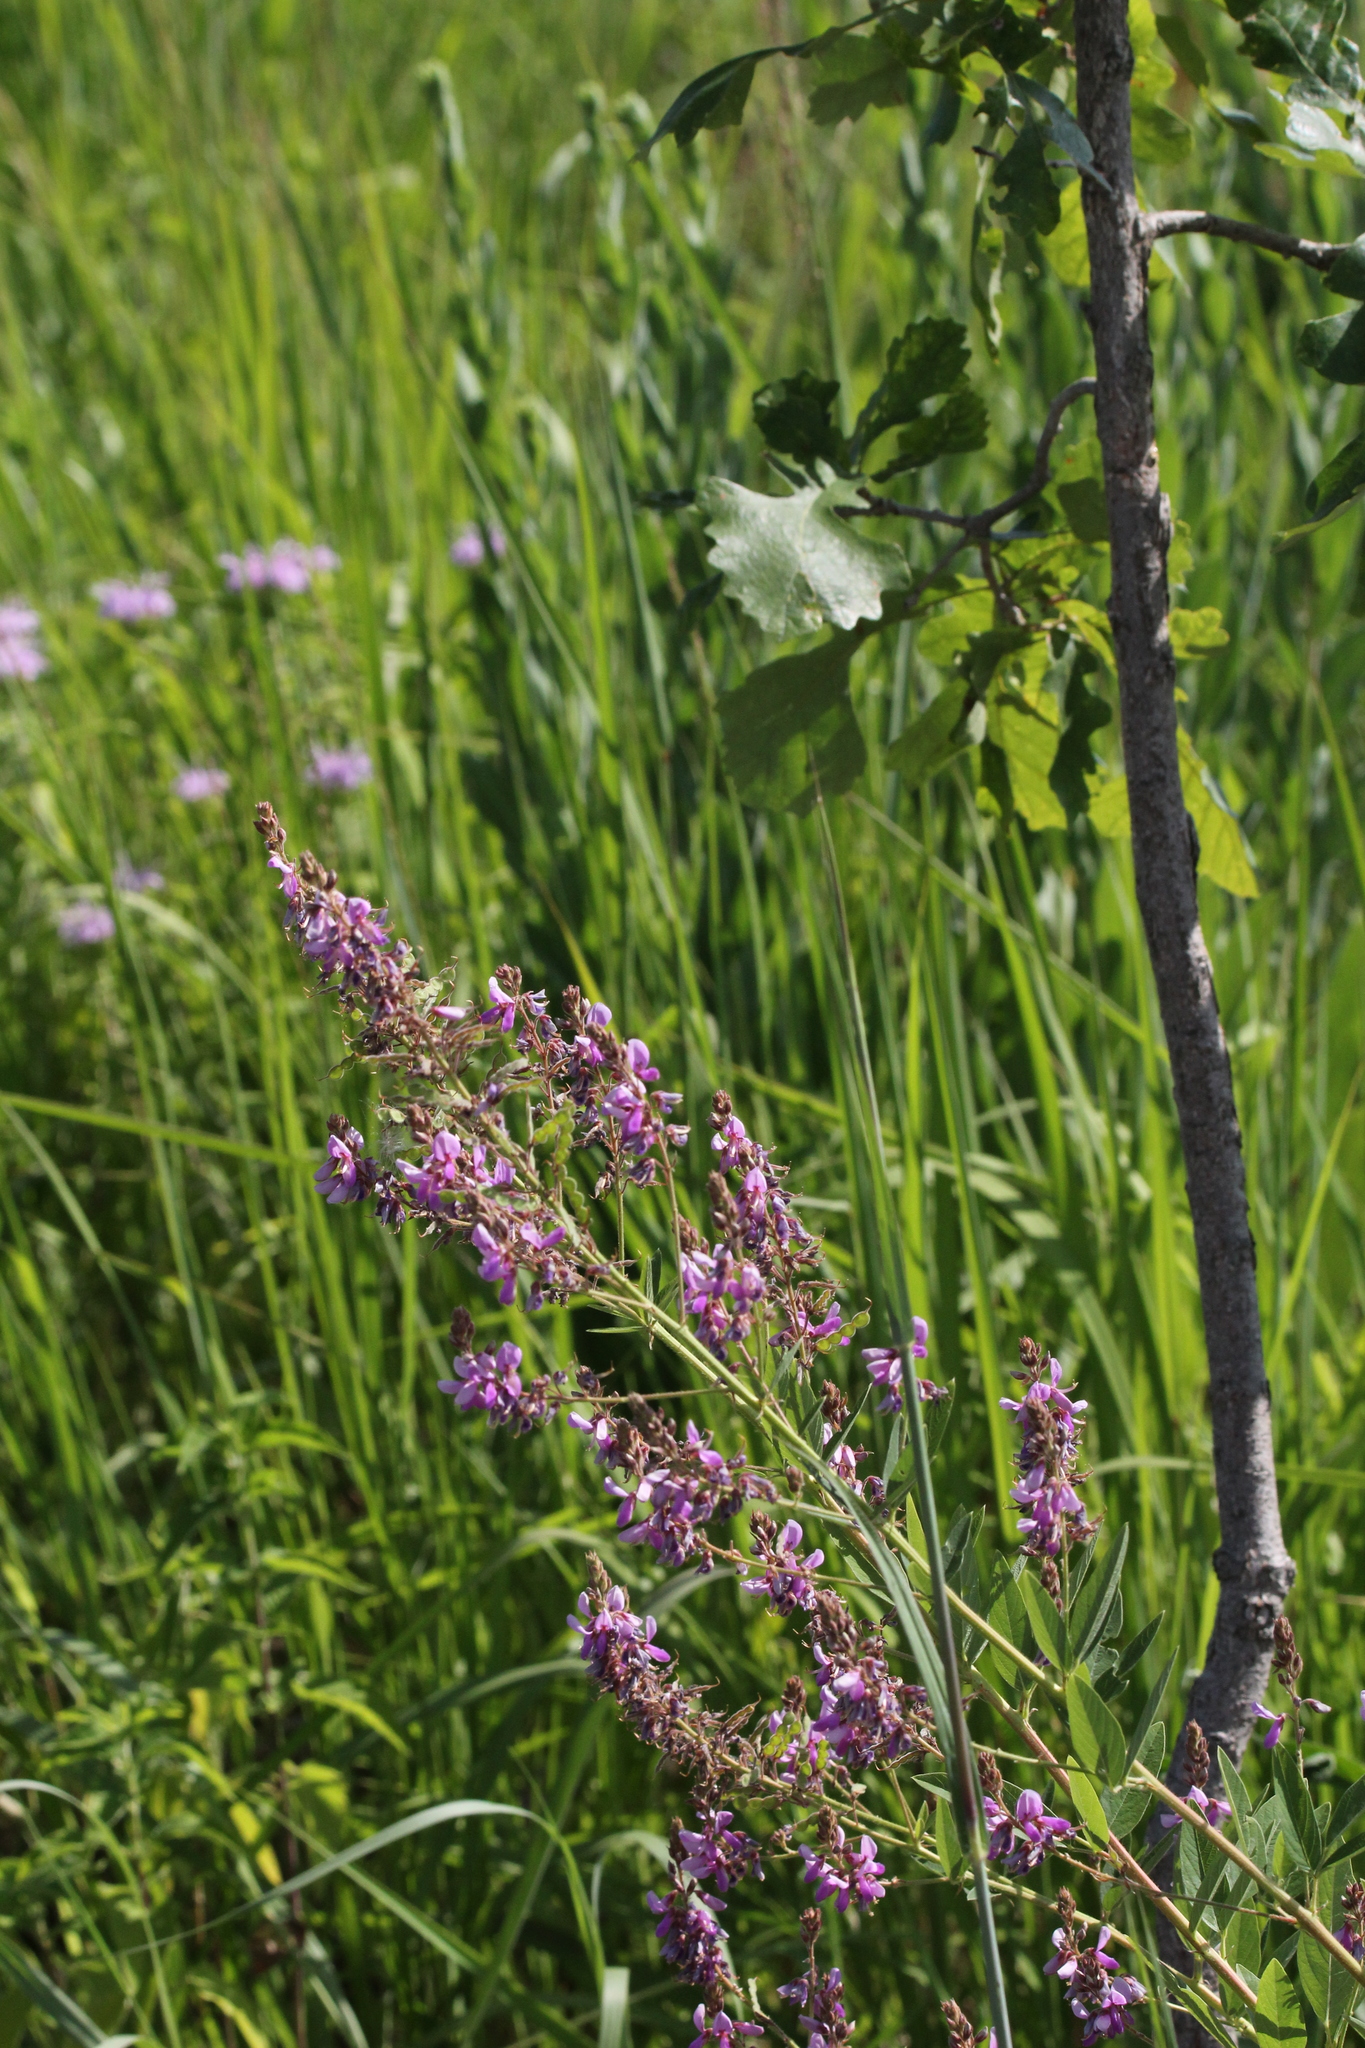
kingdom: Plantae
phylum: Tracheophyta
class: Magnoliopsida
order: Fabales
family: Fabaceae
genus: Desmodium
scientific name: Desmodium canadense
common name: Canada tick-trefoil
